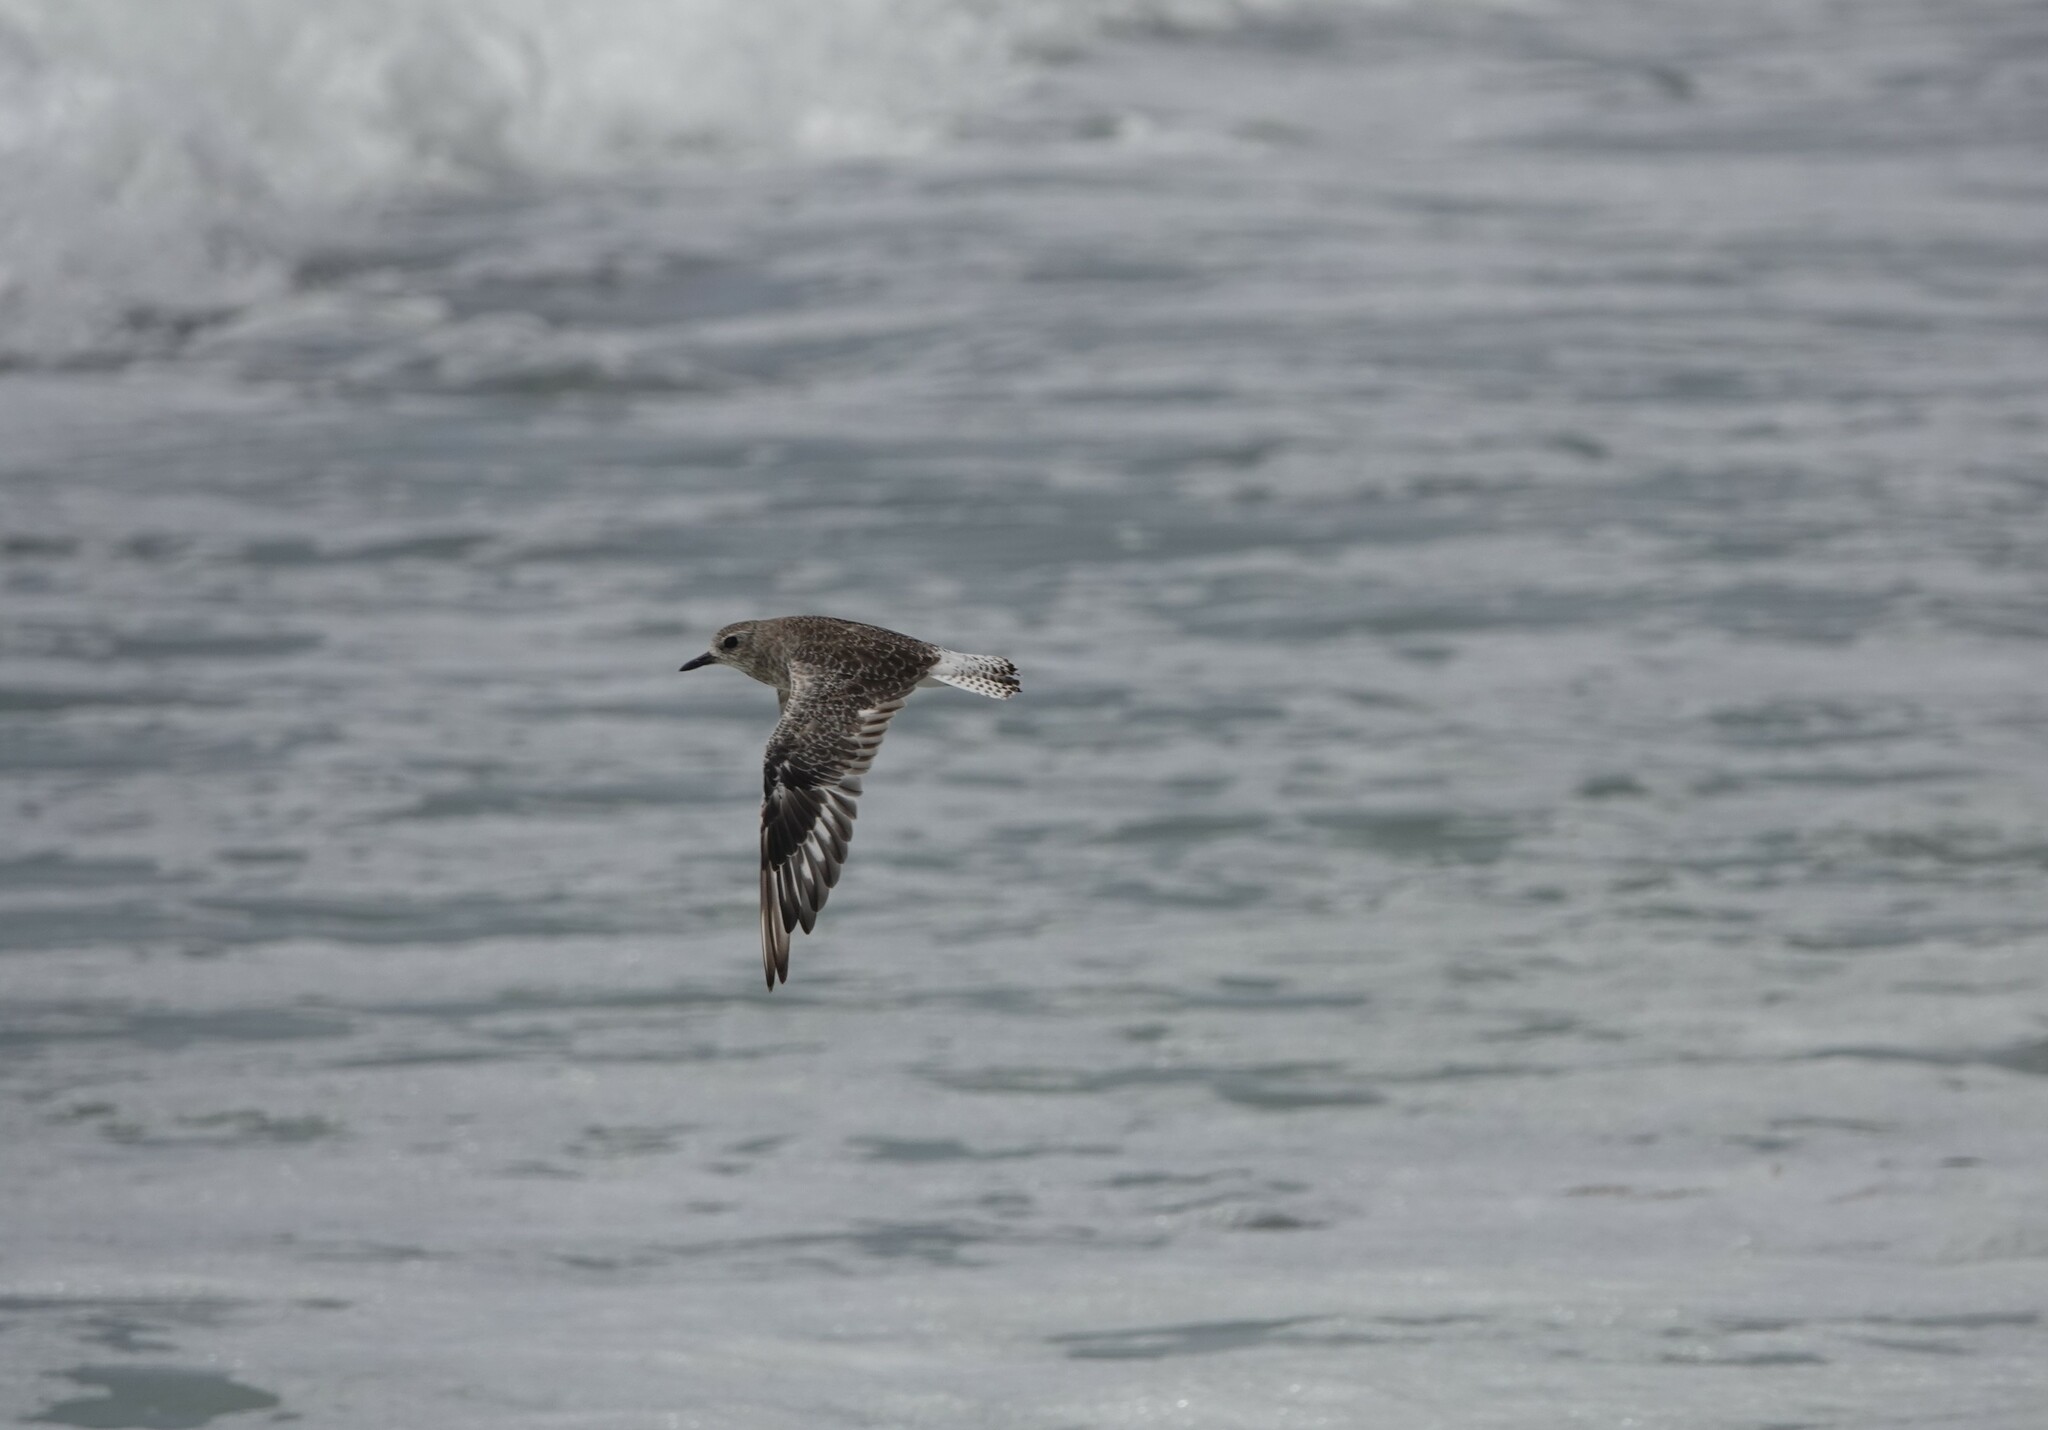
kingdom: Animalia
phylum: Chordata
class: Aves
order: Charadriiformes
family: Charadriidae
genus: Pluvialis
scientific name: Pluvialis squatarola
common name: Grey plover
